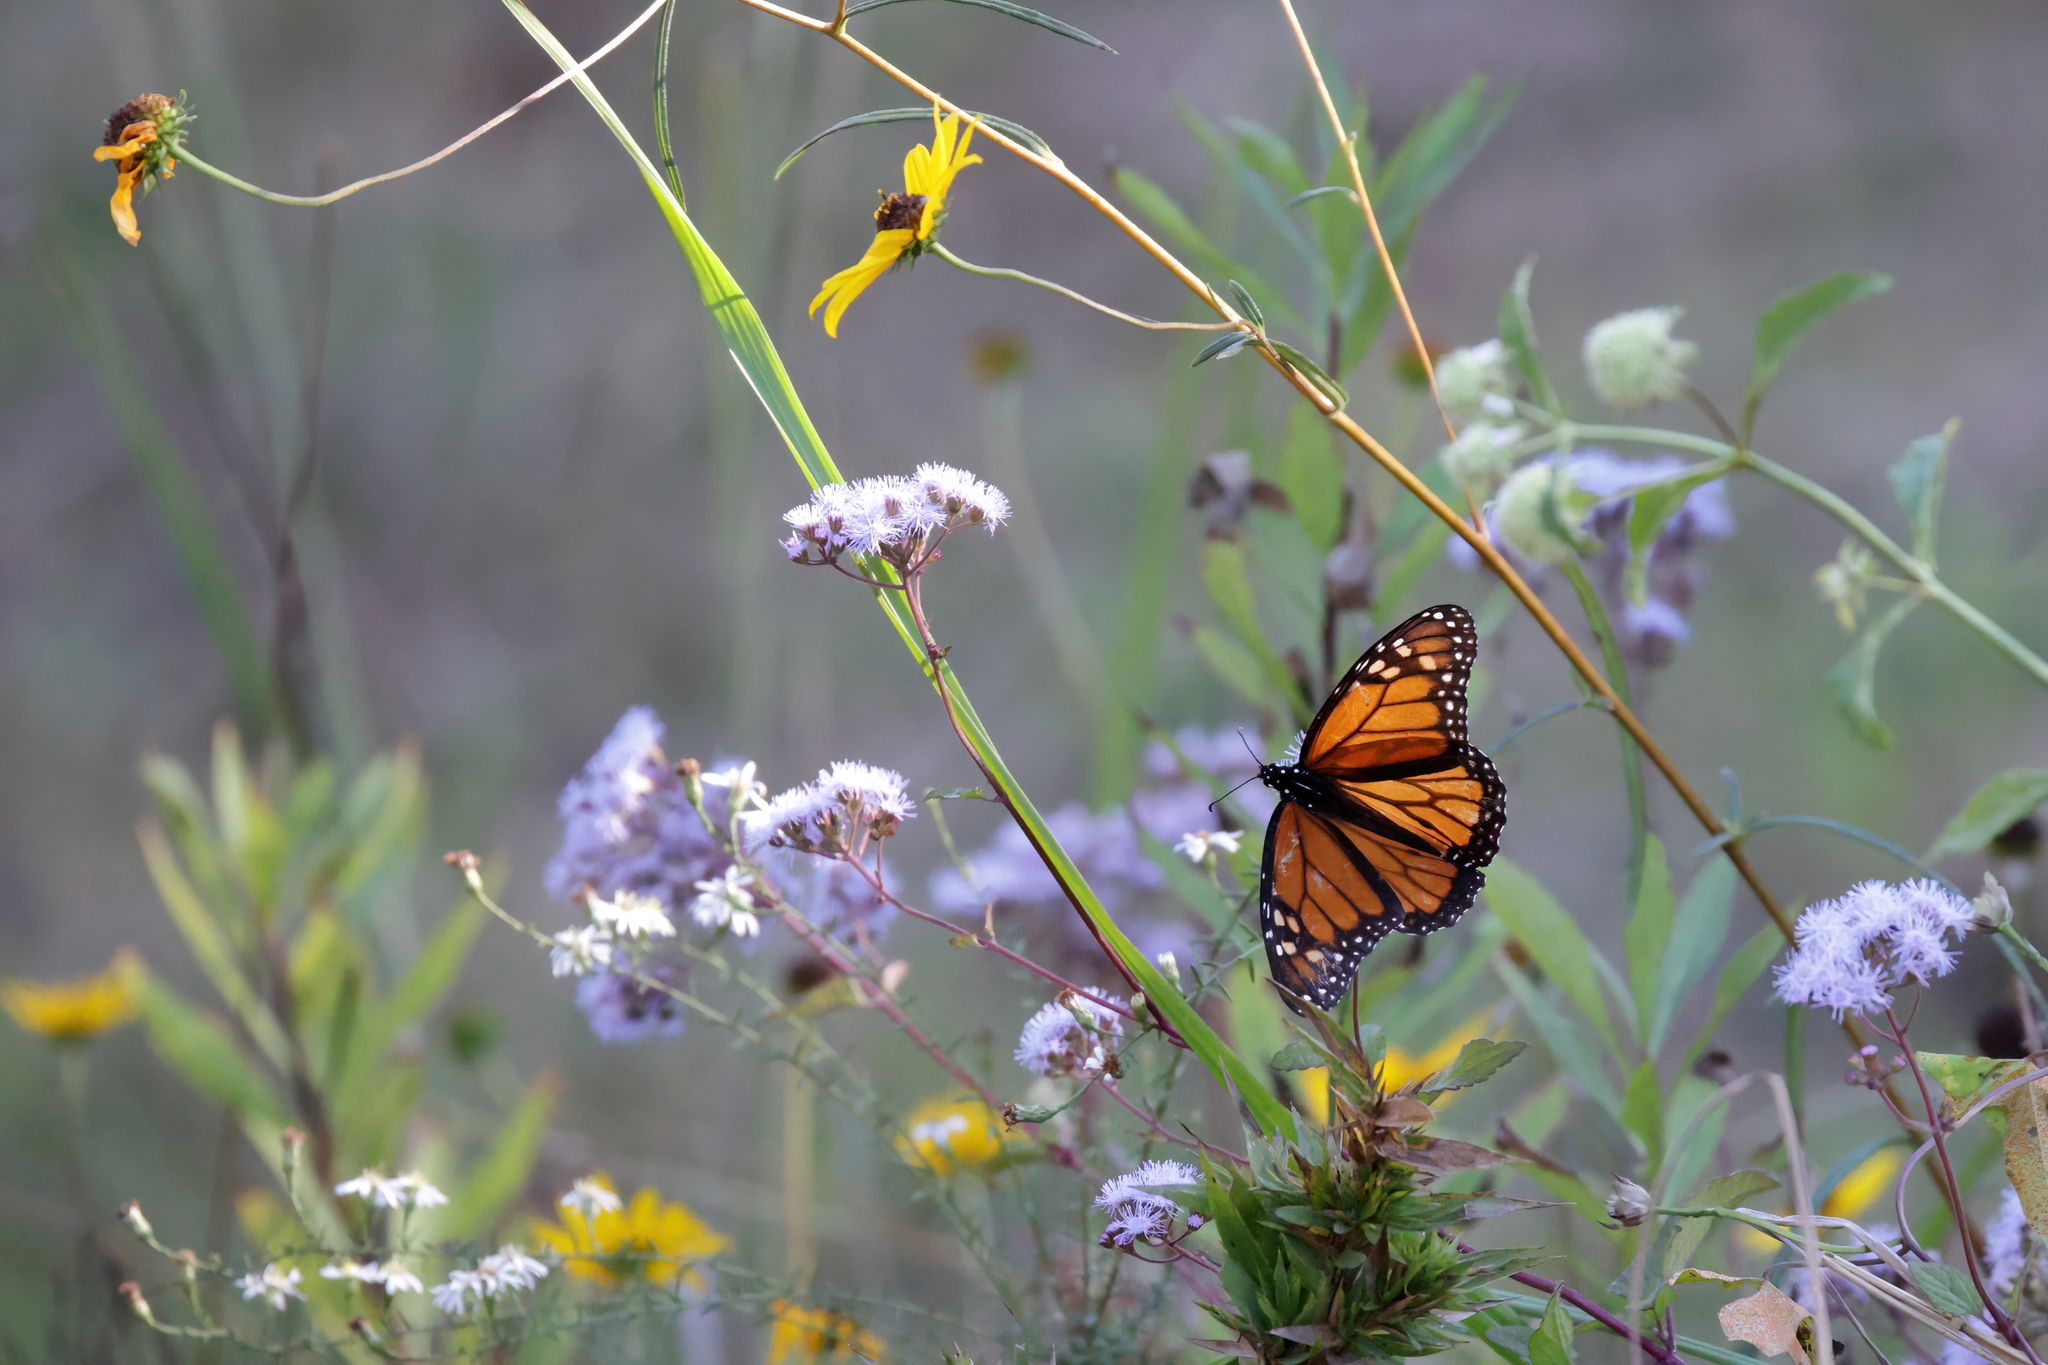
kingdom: Animalia
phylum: Arthropoda
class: Insecta
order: Lepidoptera
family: Nymphalidae
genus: Danaus
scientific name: Danaus plexippus
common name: Monarch
